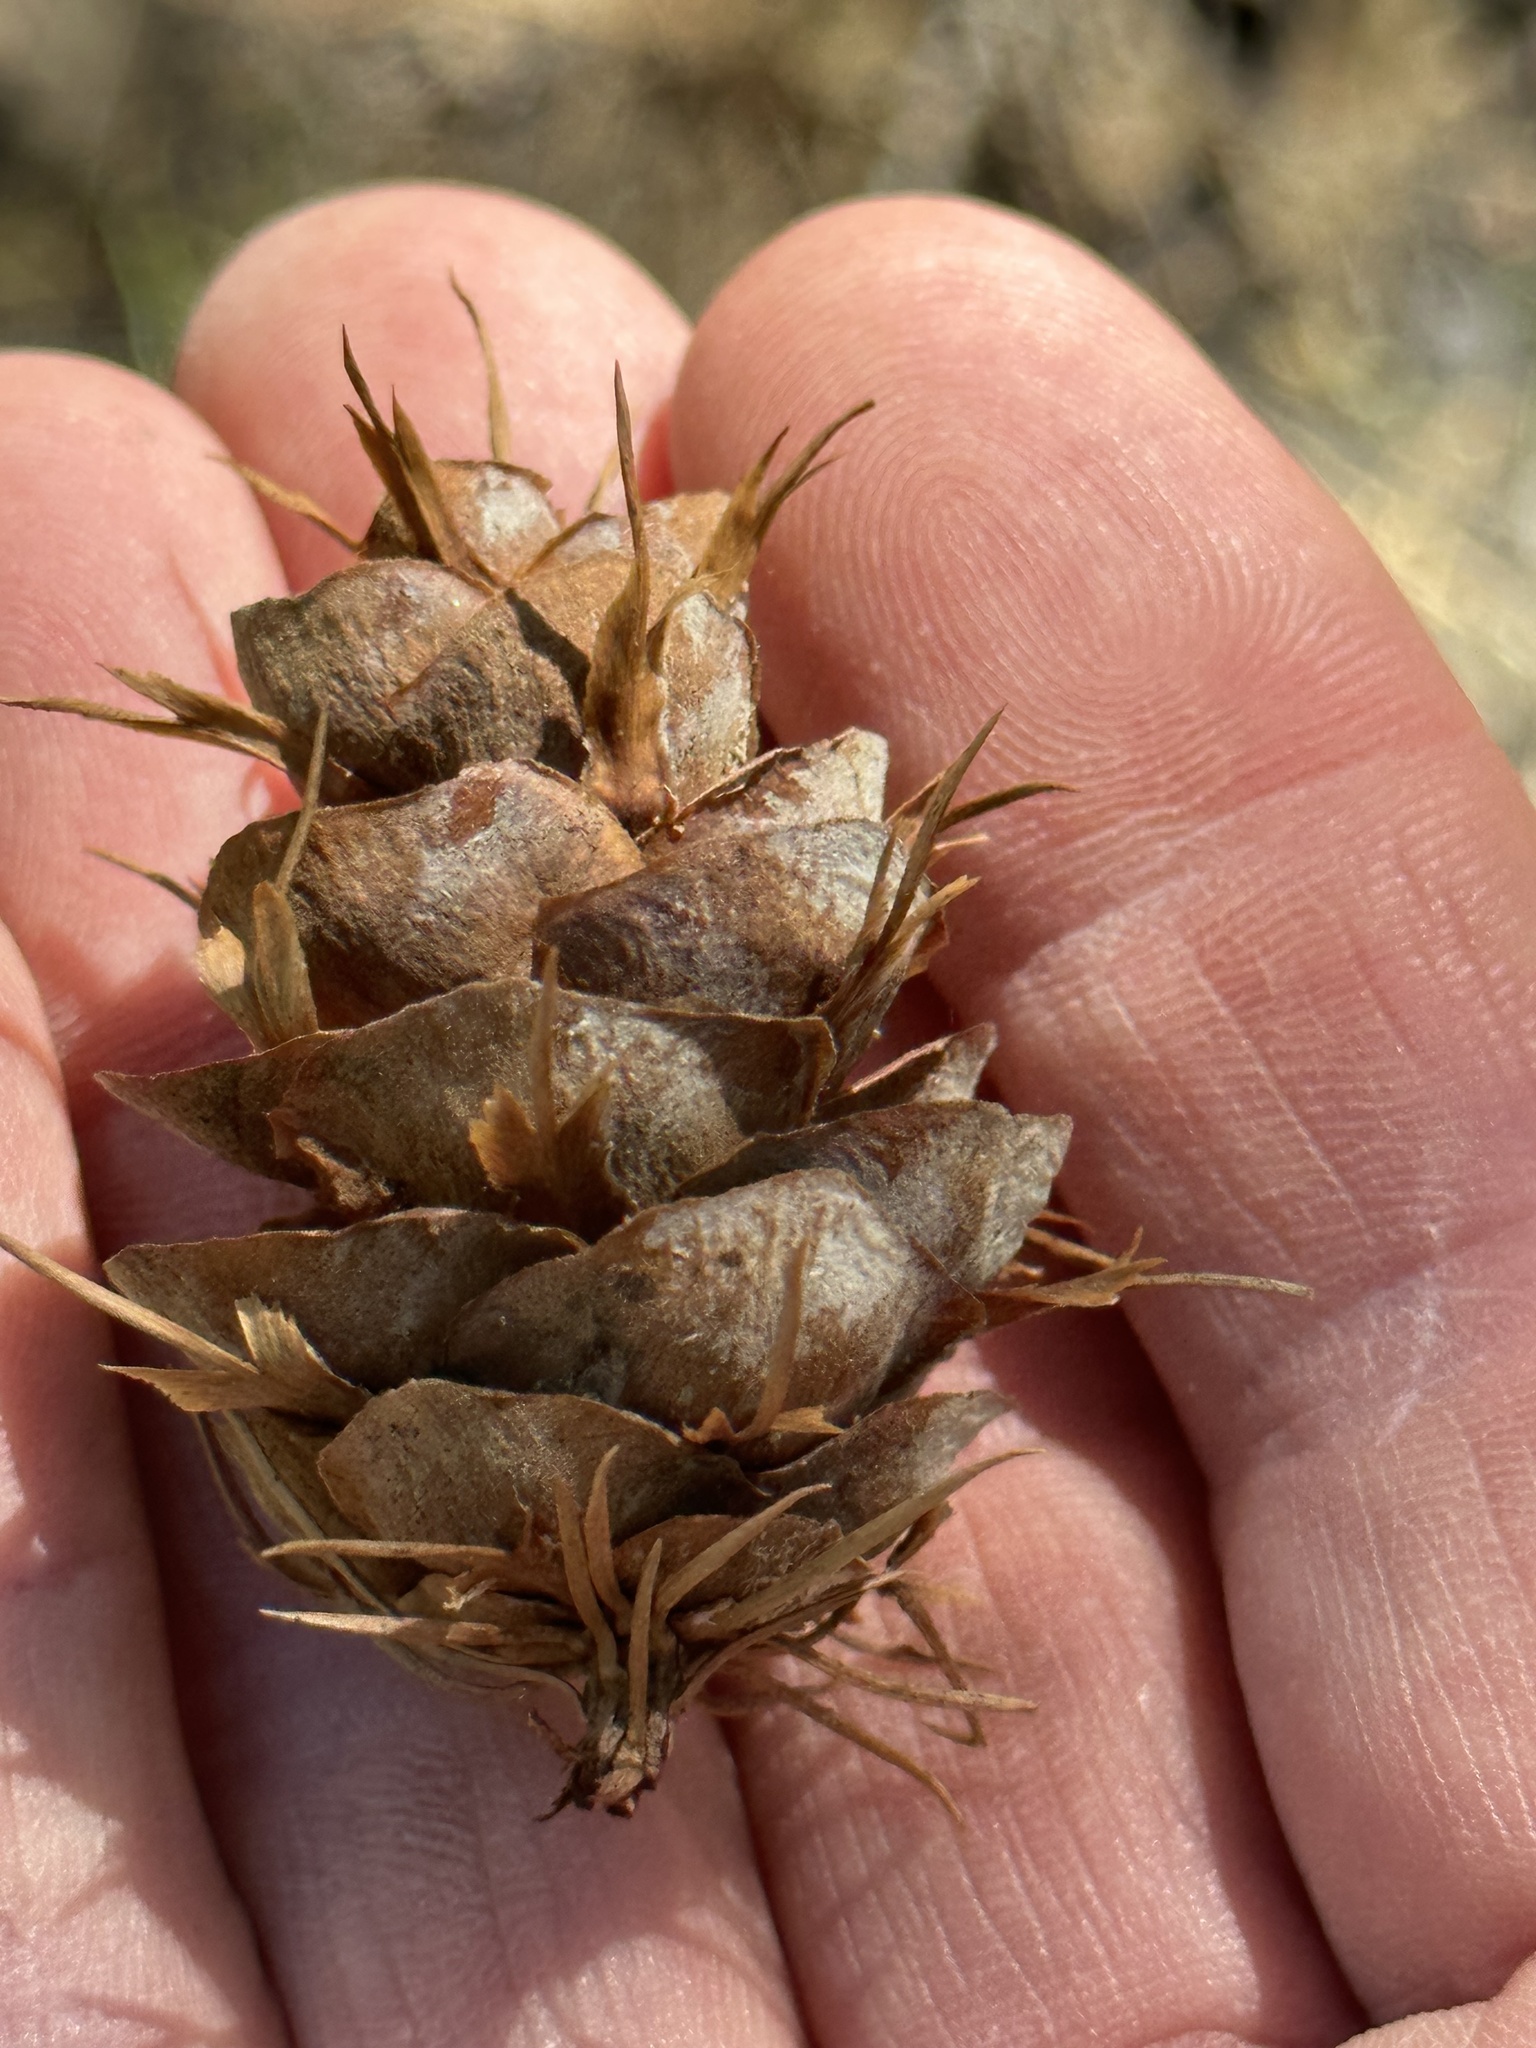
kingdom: Plantae
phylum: Tracheophyta
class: Pinopsida
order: Pinales
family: Pinaceae
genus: Pseudotsuga
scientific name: Pseudotsuga menziesii
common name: Douglas fir
